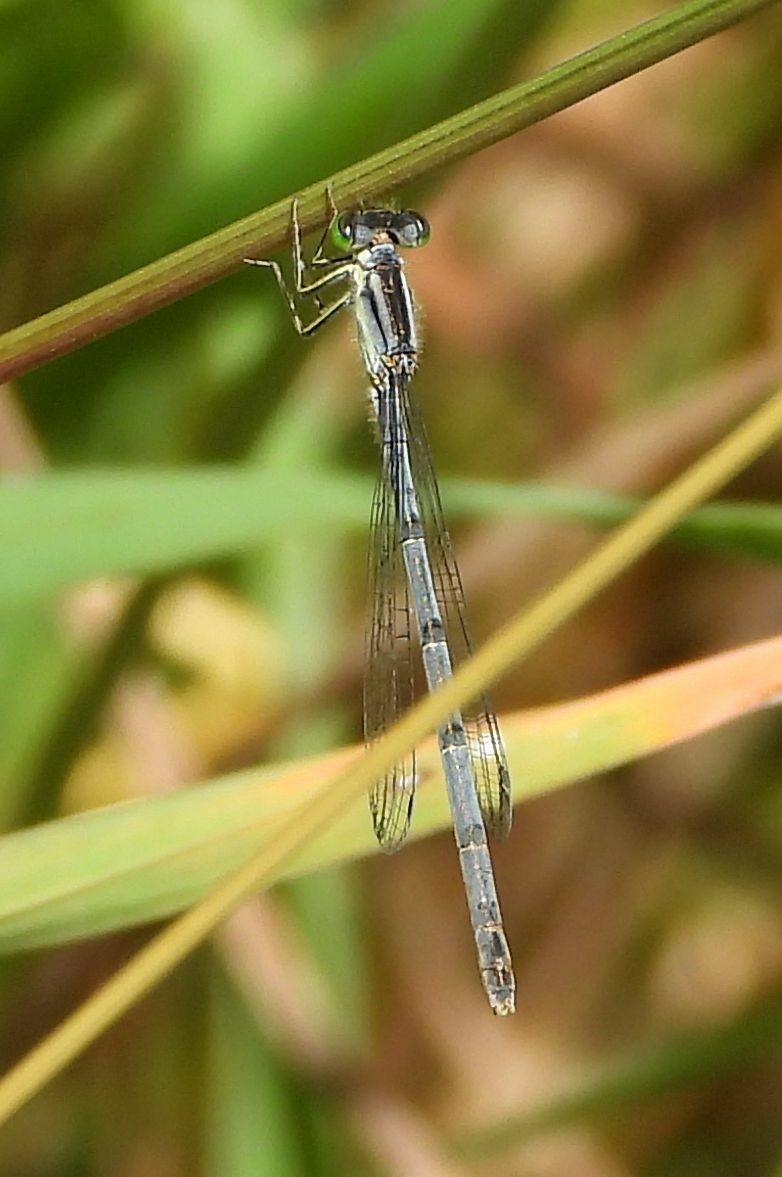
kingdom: Animalia
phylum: Arthropoda
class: Insecta
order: Odonata
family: Coenagrionidae
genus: Ischnura
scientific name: Ischnura verticalis
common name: Eastern forktail
